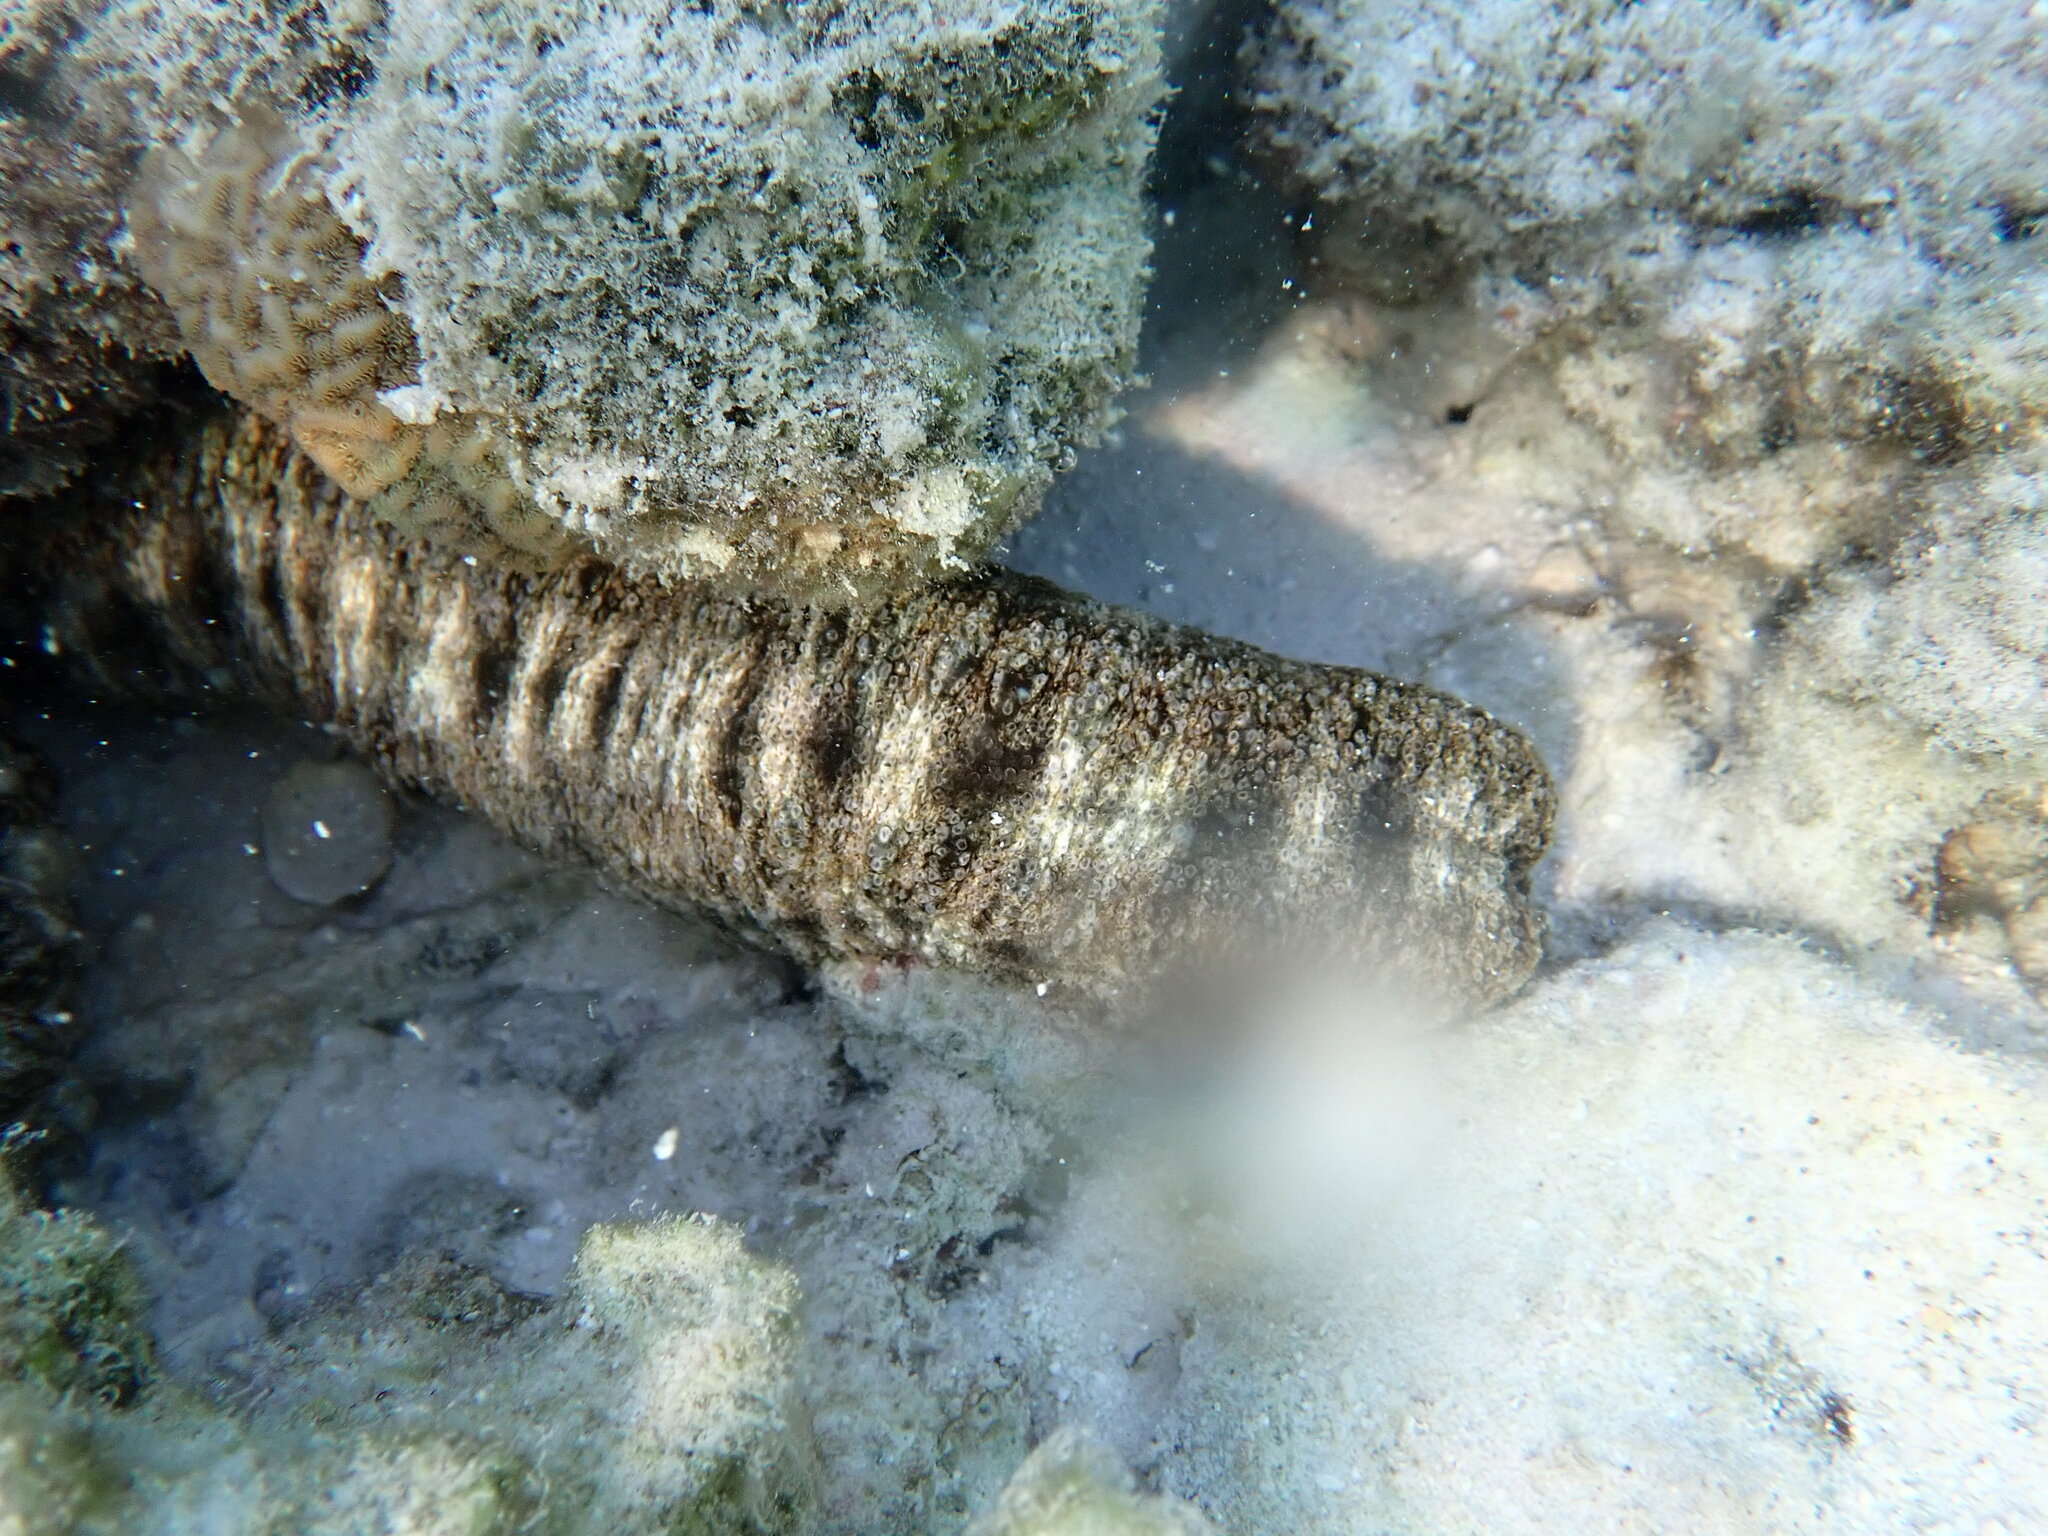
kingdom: Animalia
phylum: Echinodermata
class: Holothuroidea
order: Apodida
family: Synaptidae
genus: Synapta
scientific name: Synapta maculata
